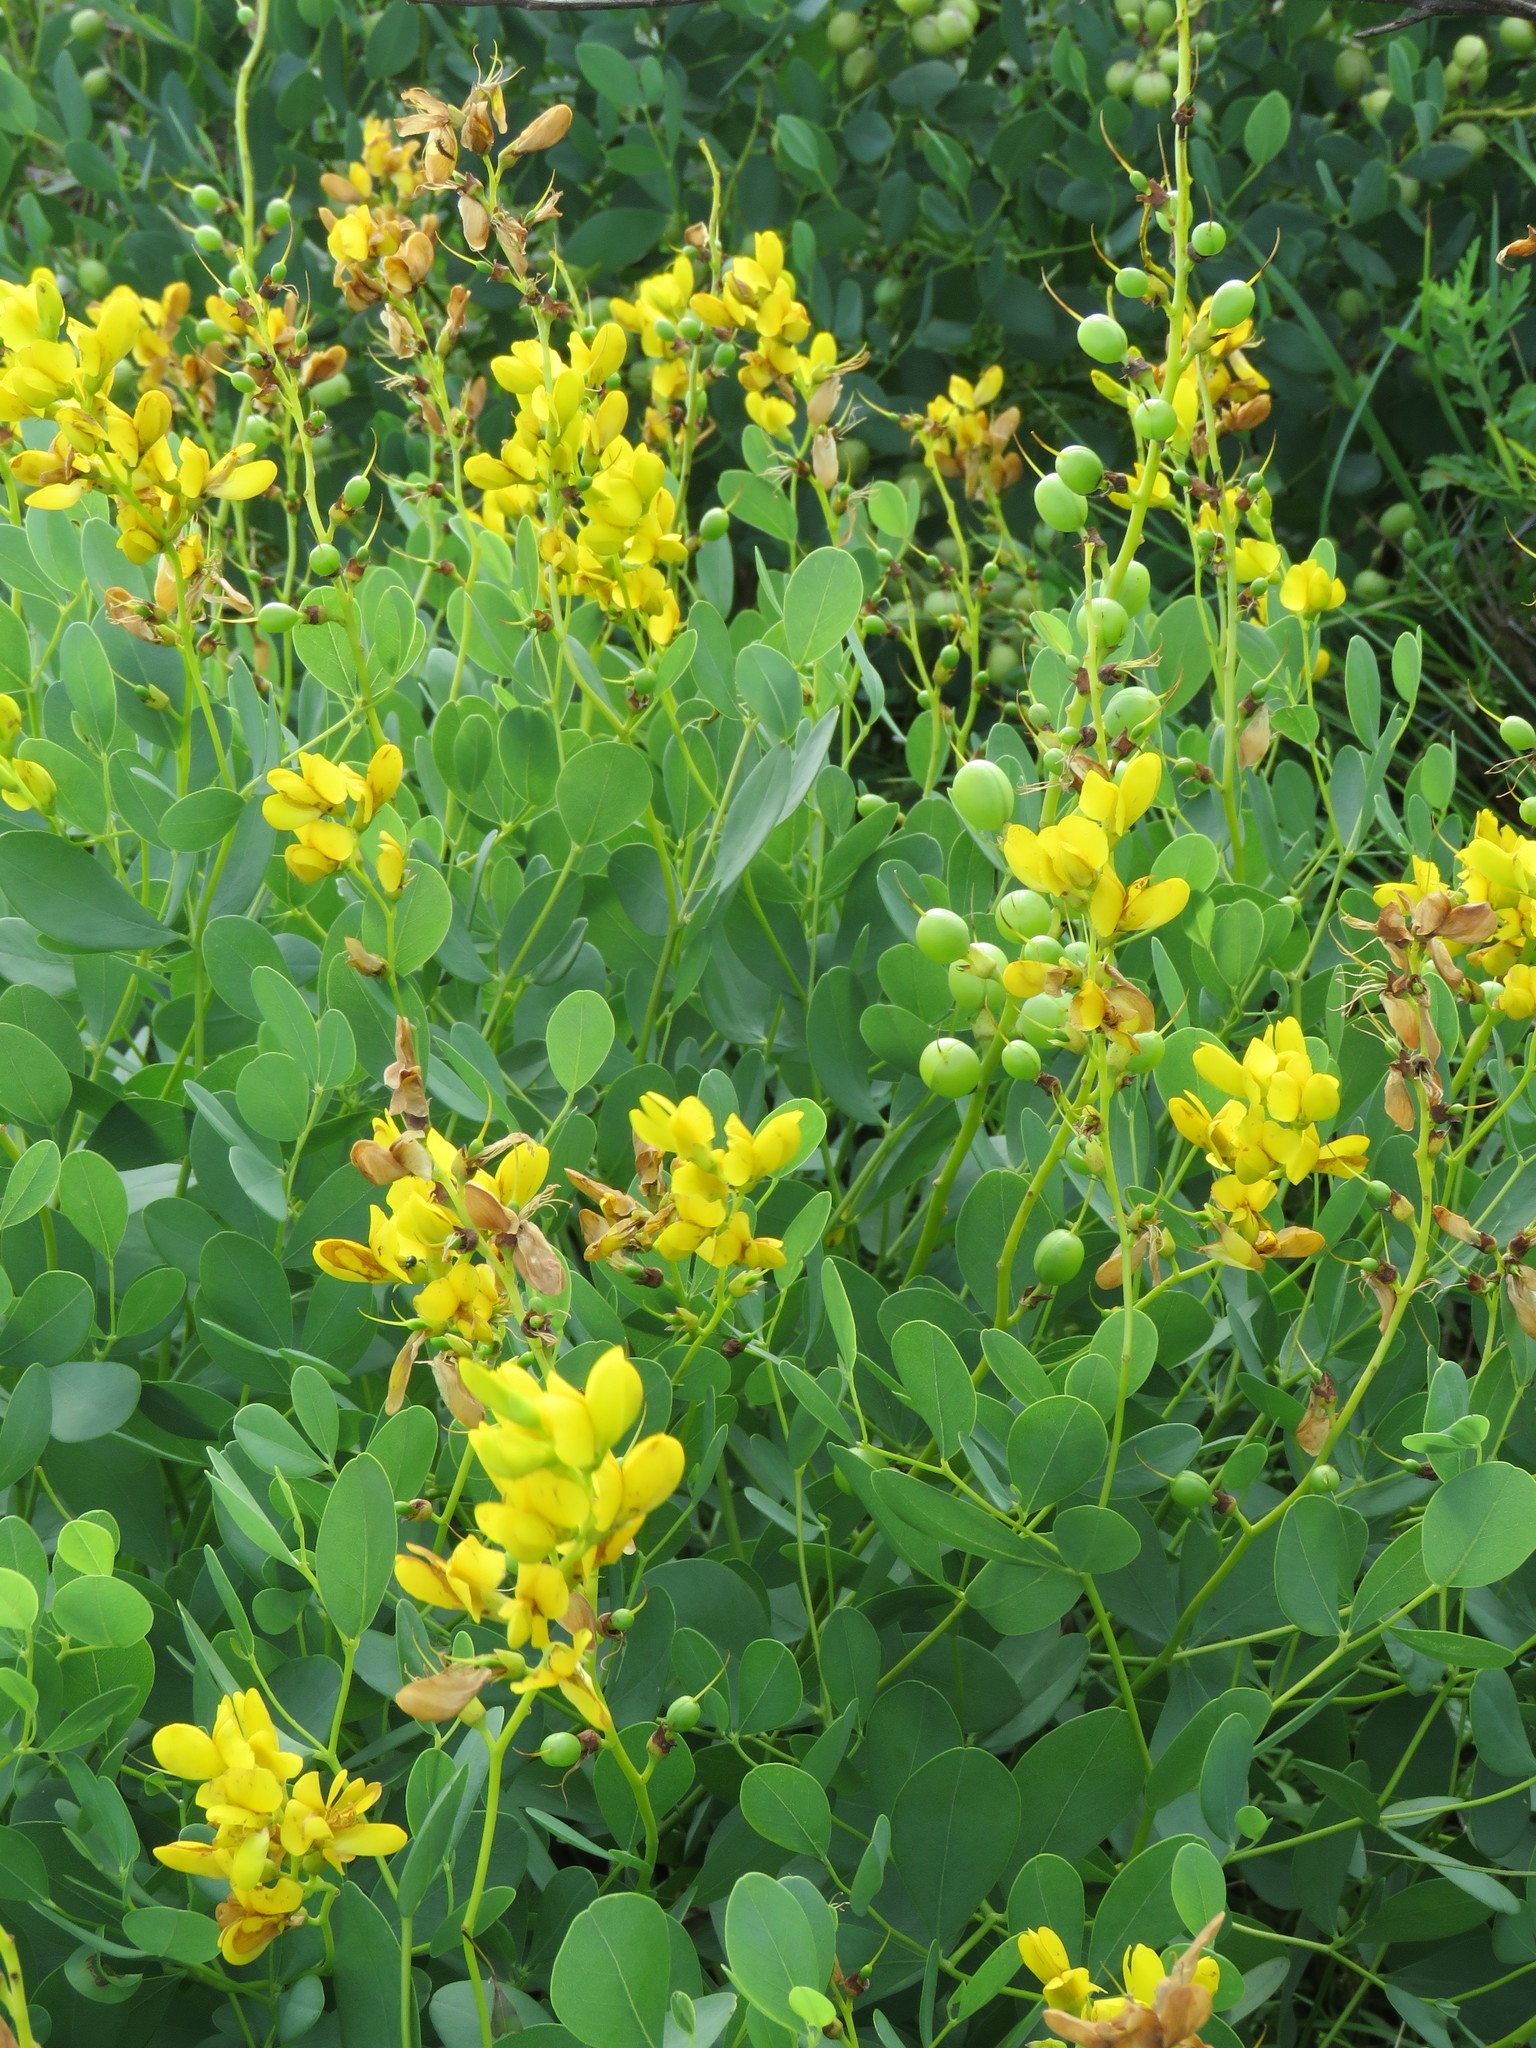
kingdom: Plantae
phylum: Tracheophyta
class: Magnoliopsida
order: Fabales
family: Fabaceae
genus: Baptisia
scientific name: Baptisia sphaerocarpa
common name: Round wild indigo
